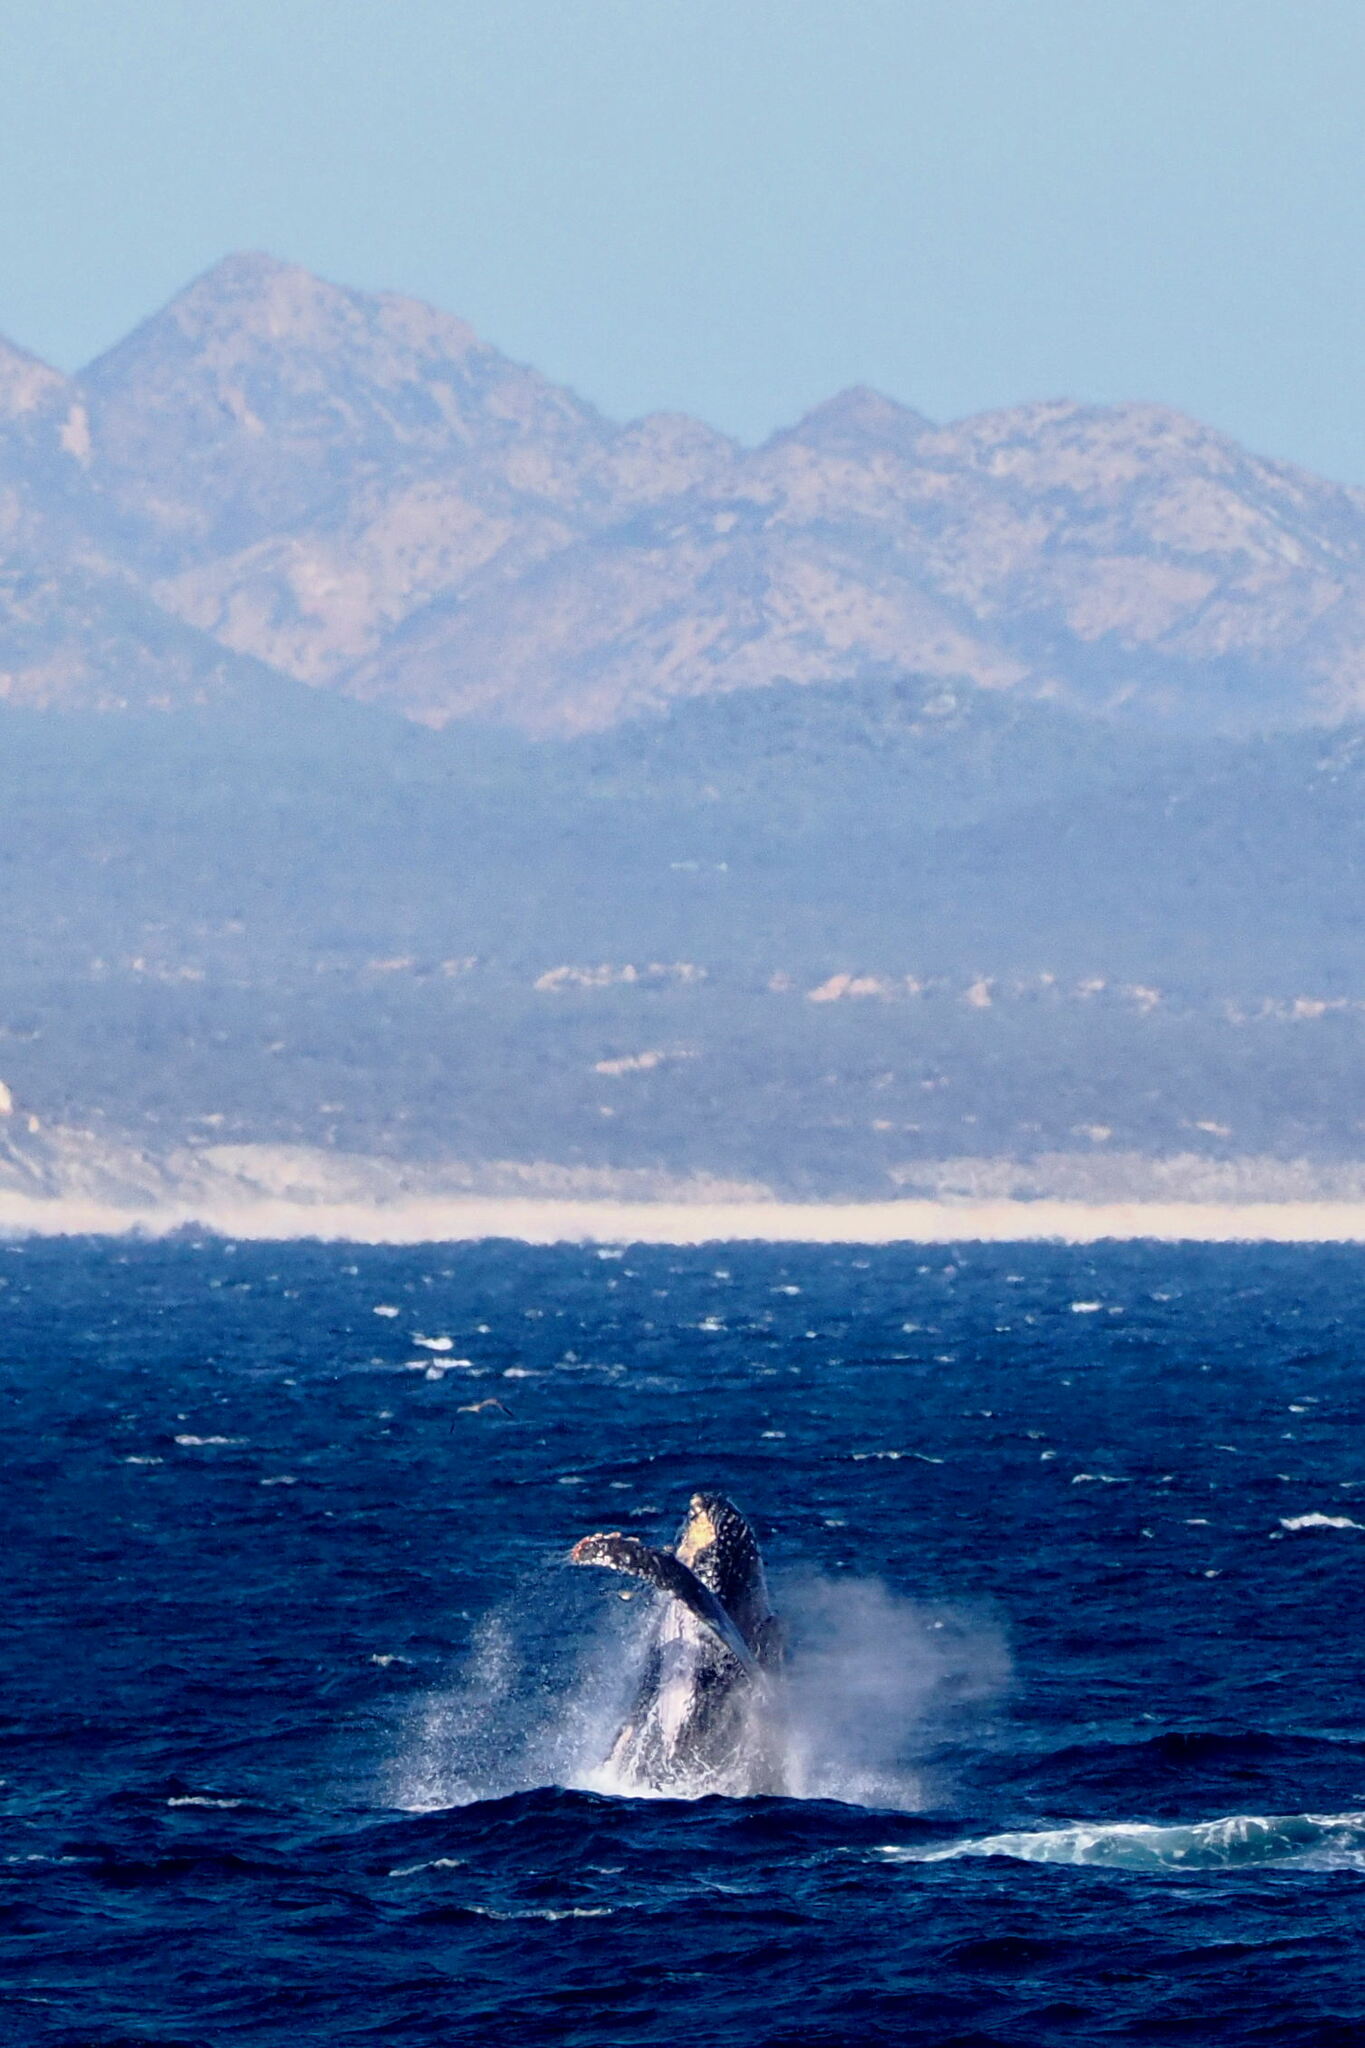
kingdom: Animalia
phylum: Chordata
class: Mammalia
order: Cetacea
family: Balaenopteridae
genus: Megaptera
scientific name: Megaptera novaeangliae
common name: Humpback whale
